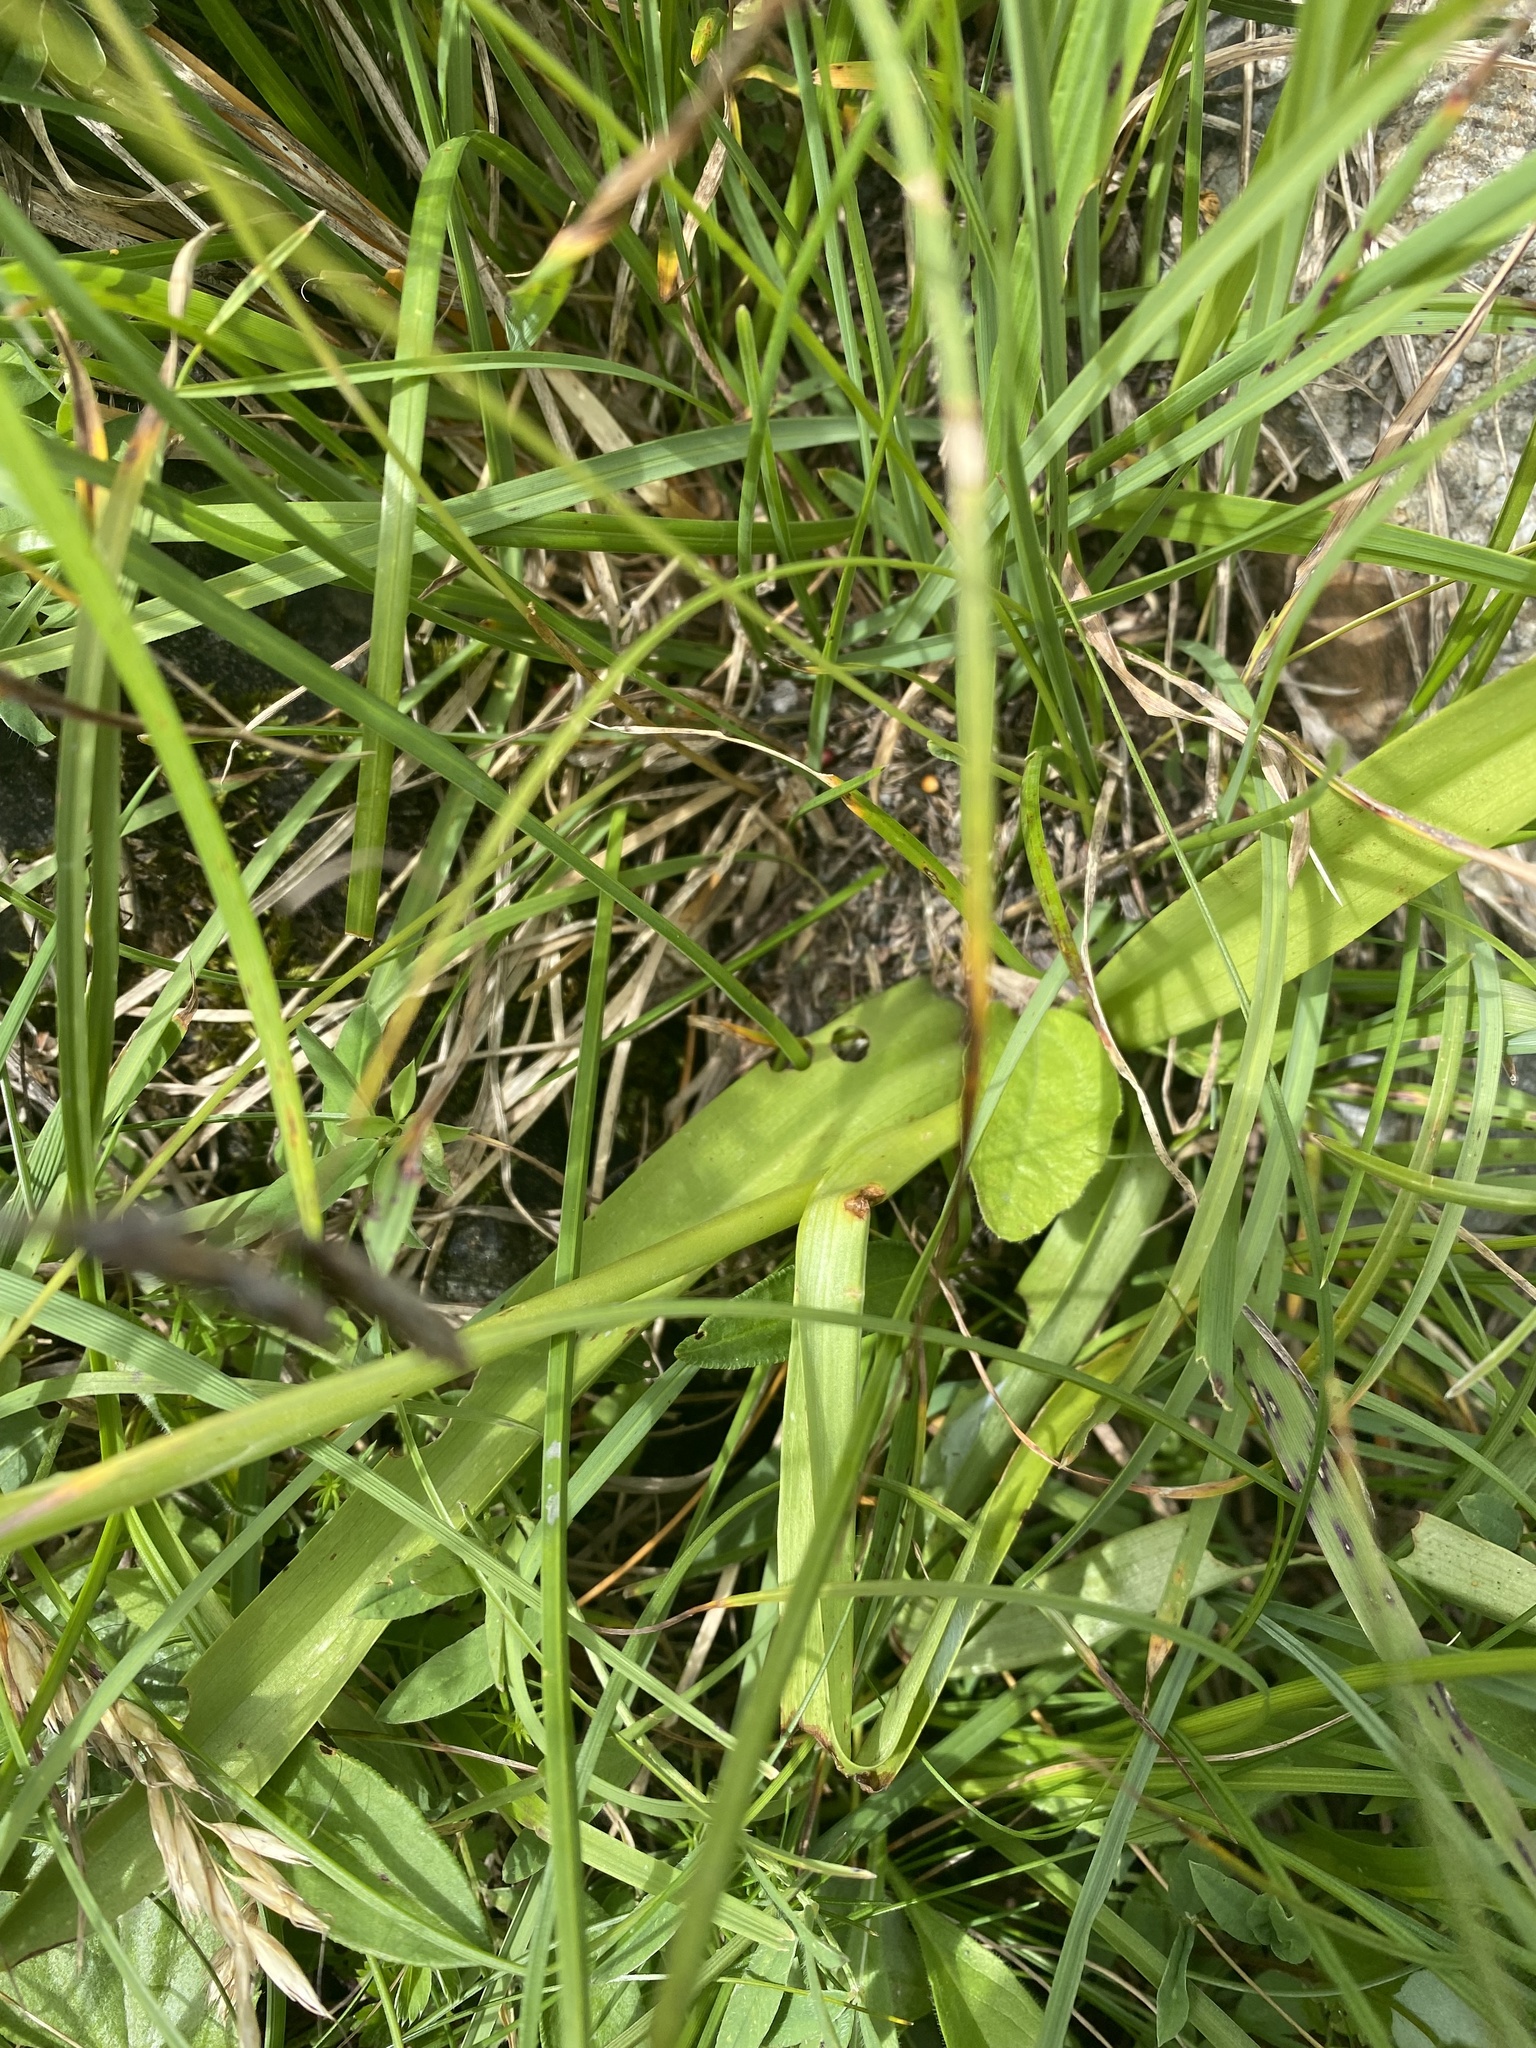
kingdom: Plantae
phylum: Tracheophyta
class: Liliopsida
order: Asparagales
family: Orchidaceae
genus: Gymnadenia
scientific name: Gymnadenia conopsea
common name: Fragrant orchid
